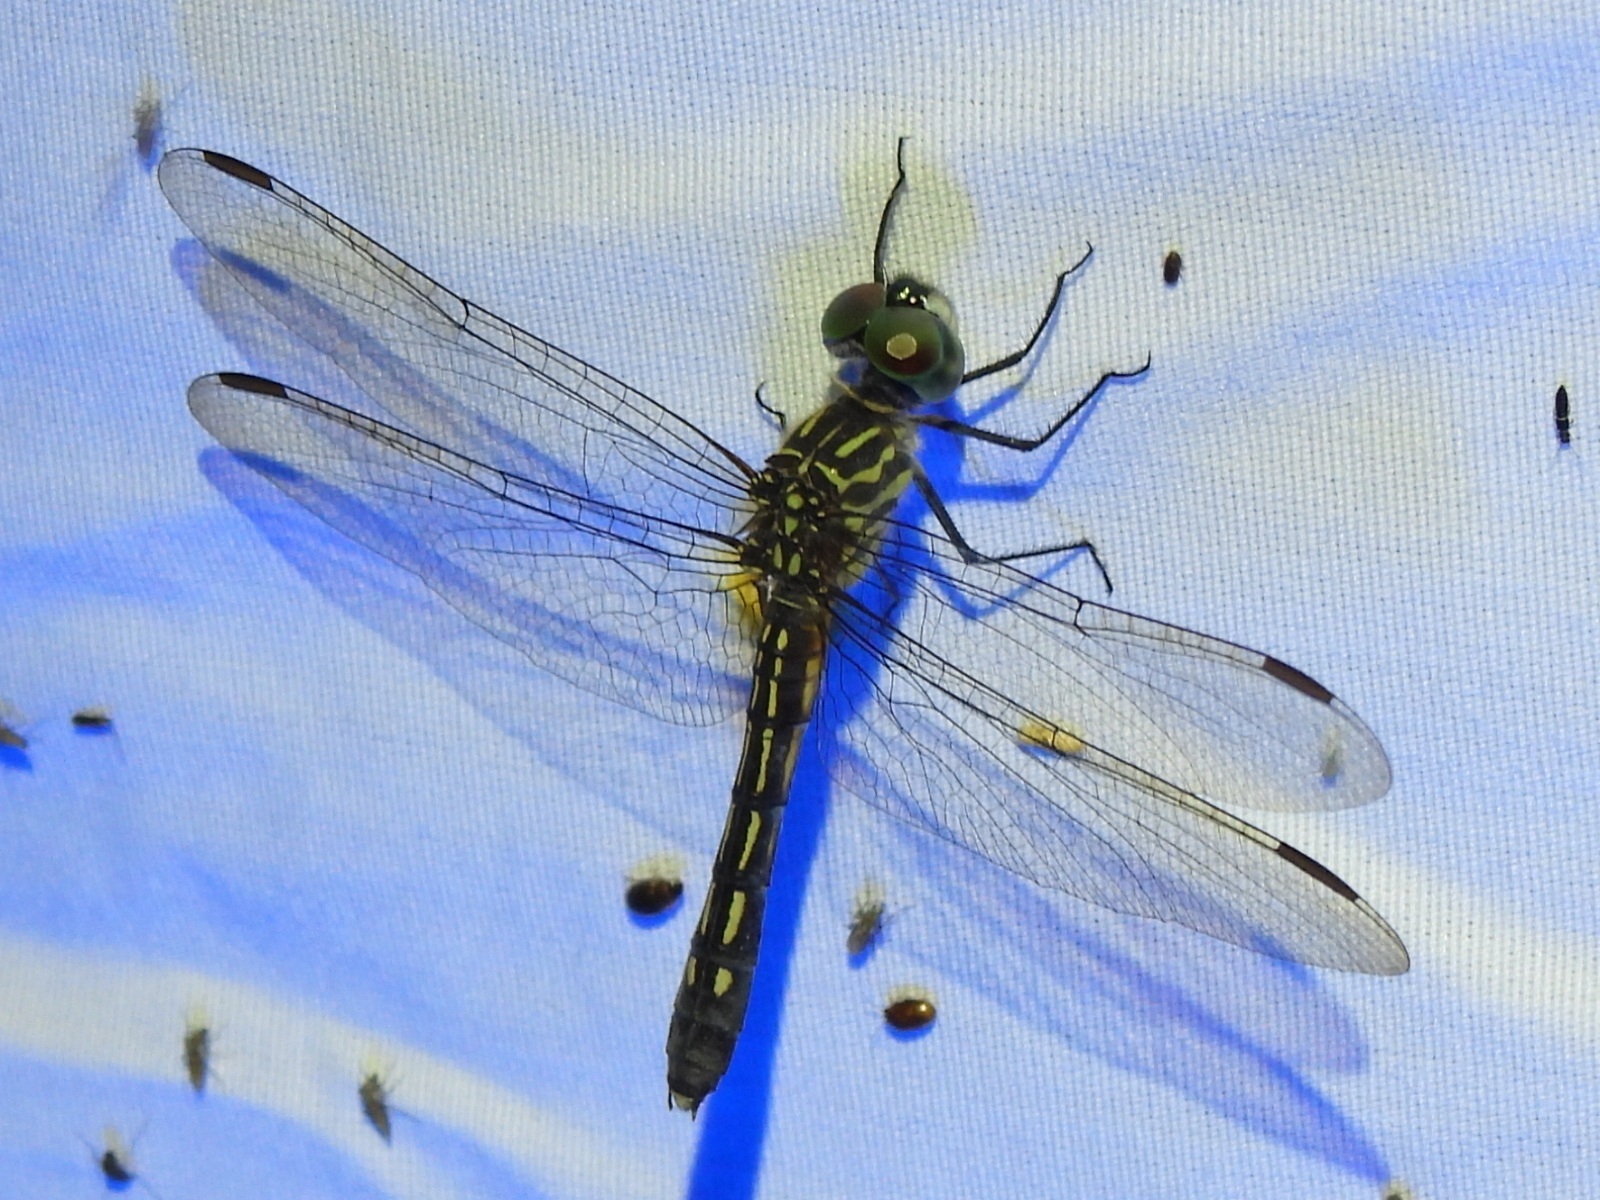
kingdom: Animalia
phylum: Arthropoda
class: Insecta
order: Odonata
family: Libellulidae
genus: Pachydiplax
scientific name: Pachydiplax longipennis
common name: Blue dasher
